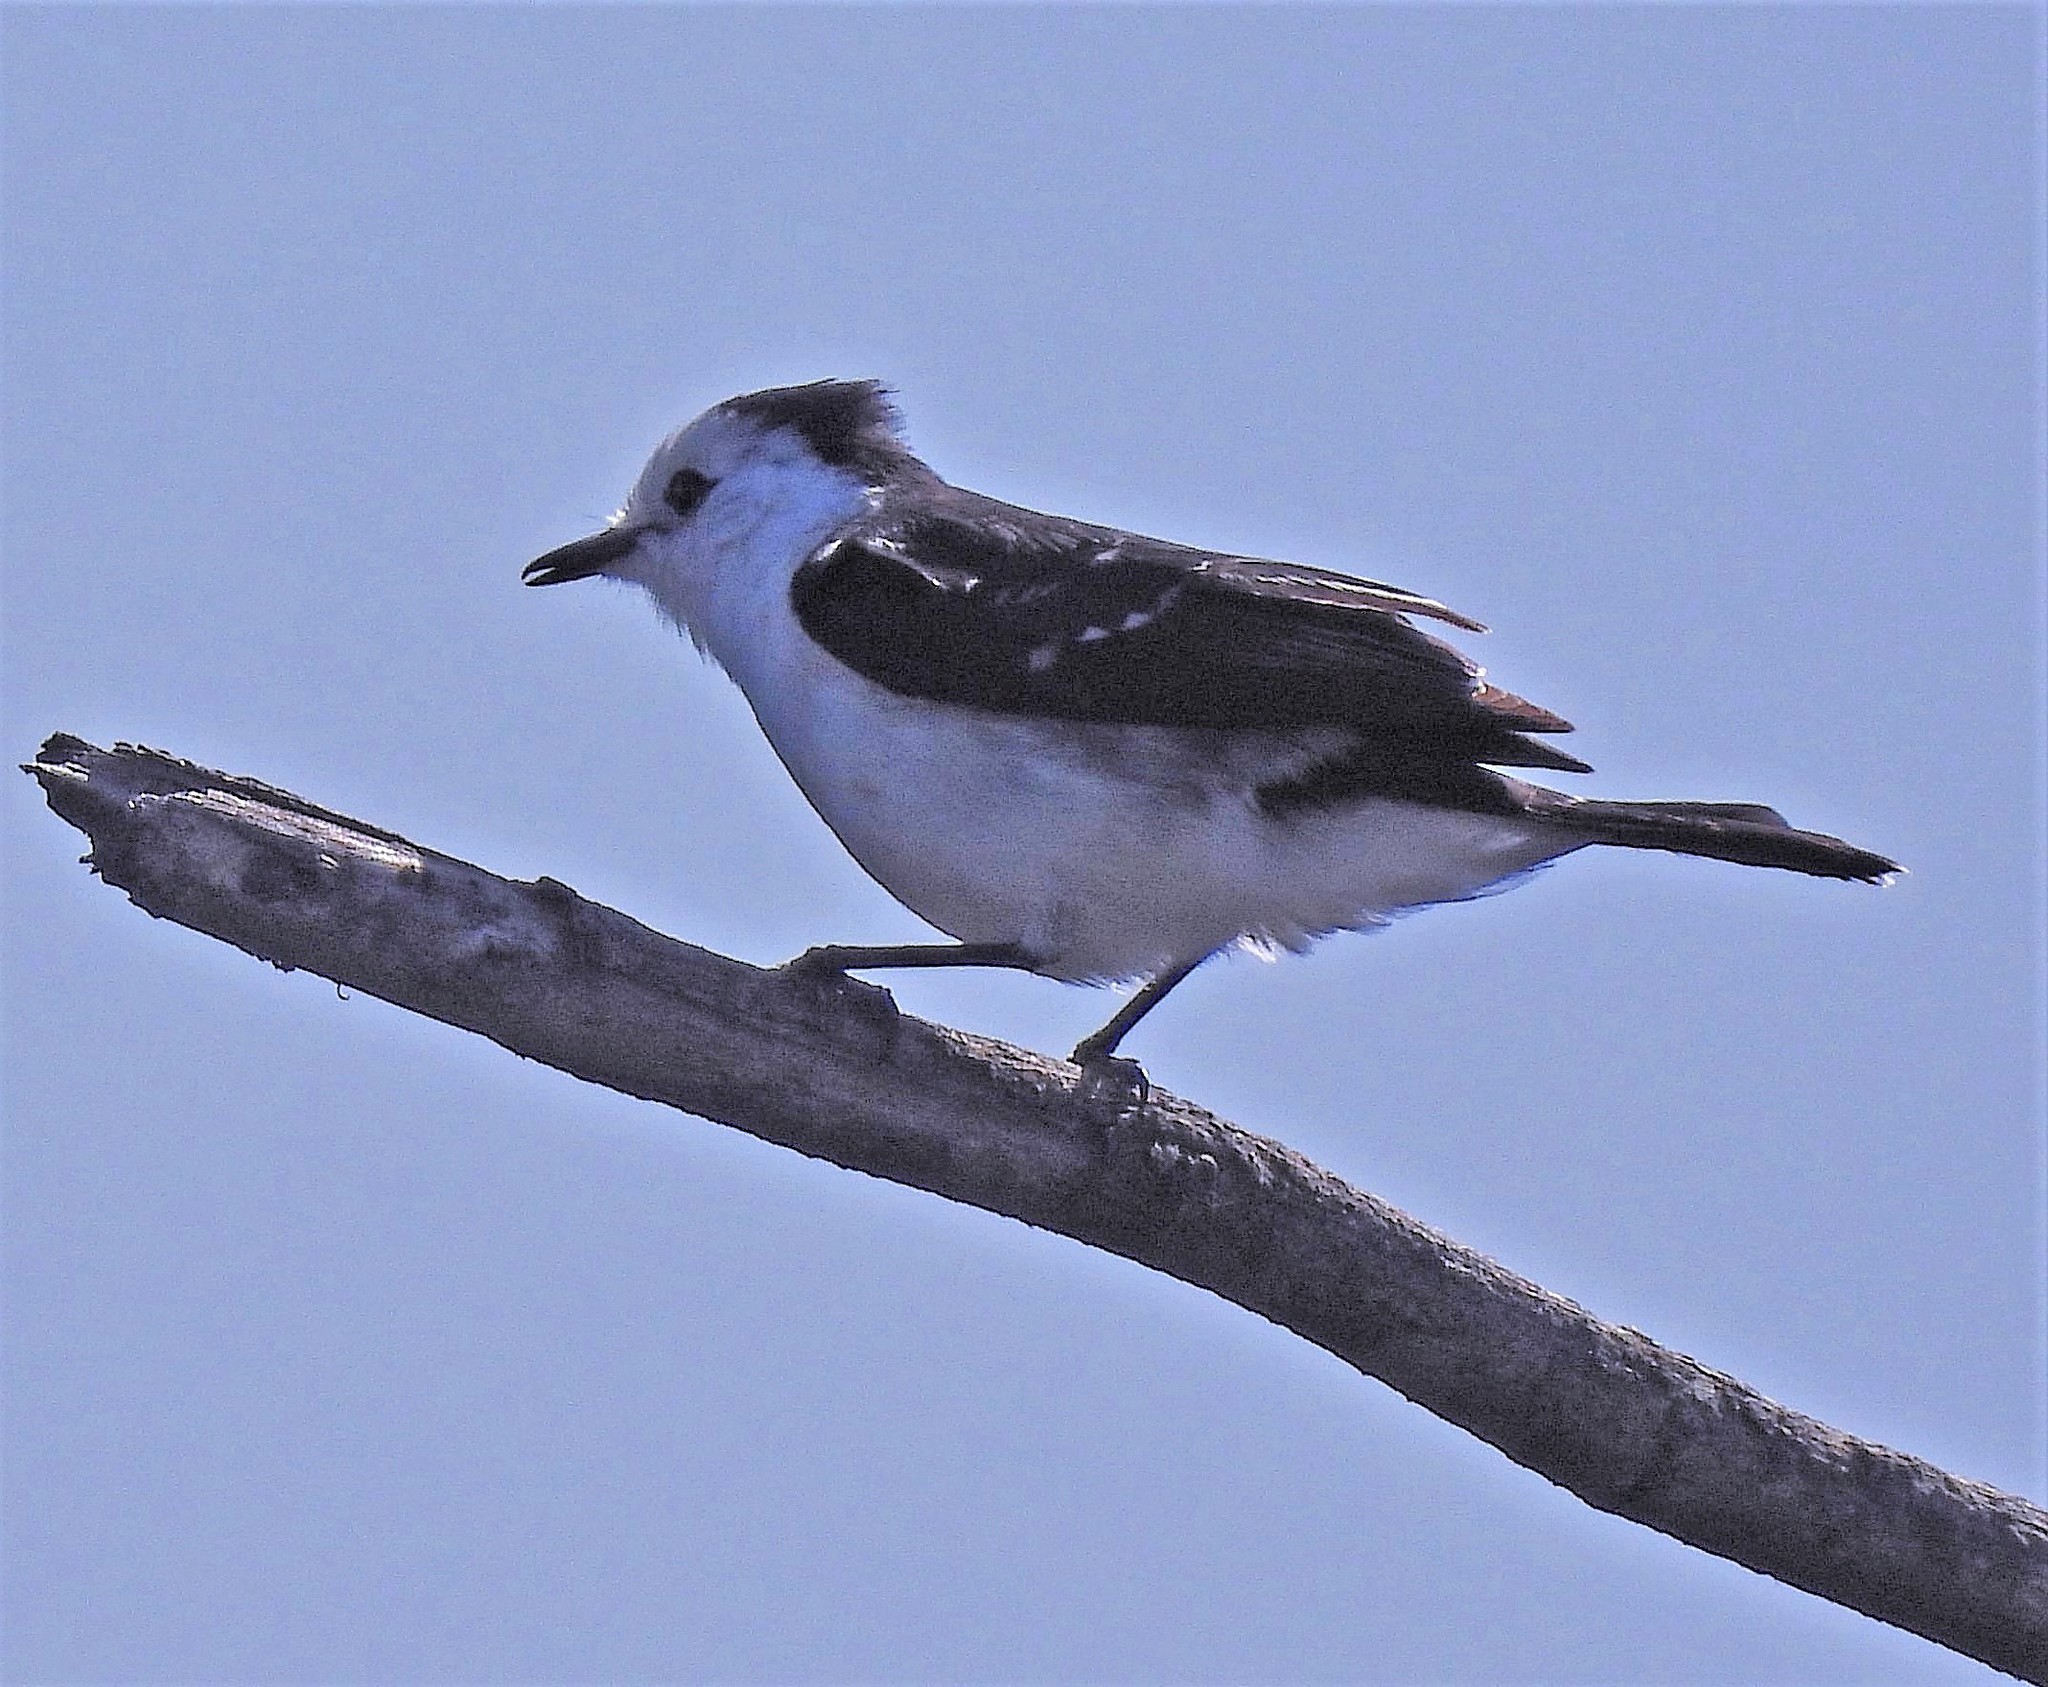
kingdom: Animalia
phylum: Chordata
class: Aves
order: Passeriformes
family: Tyrannidae
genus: Fluvicola
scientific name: Fluvicola pica
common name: Pied water-tyrant
